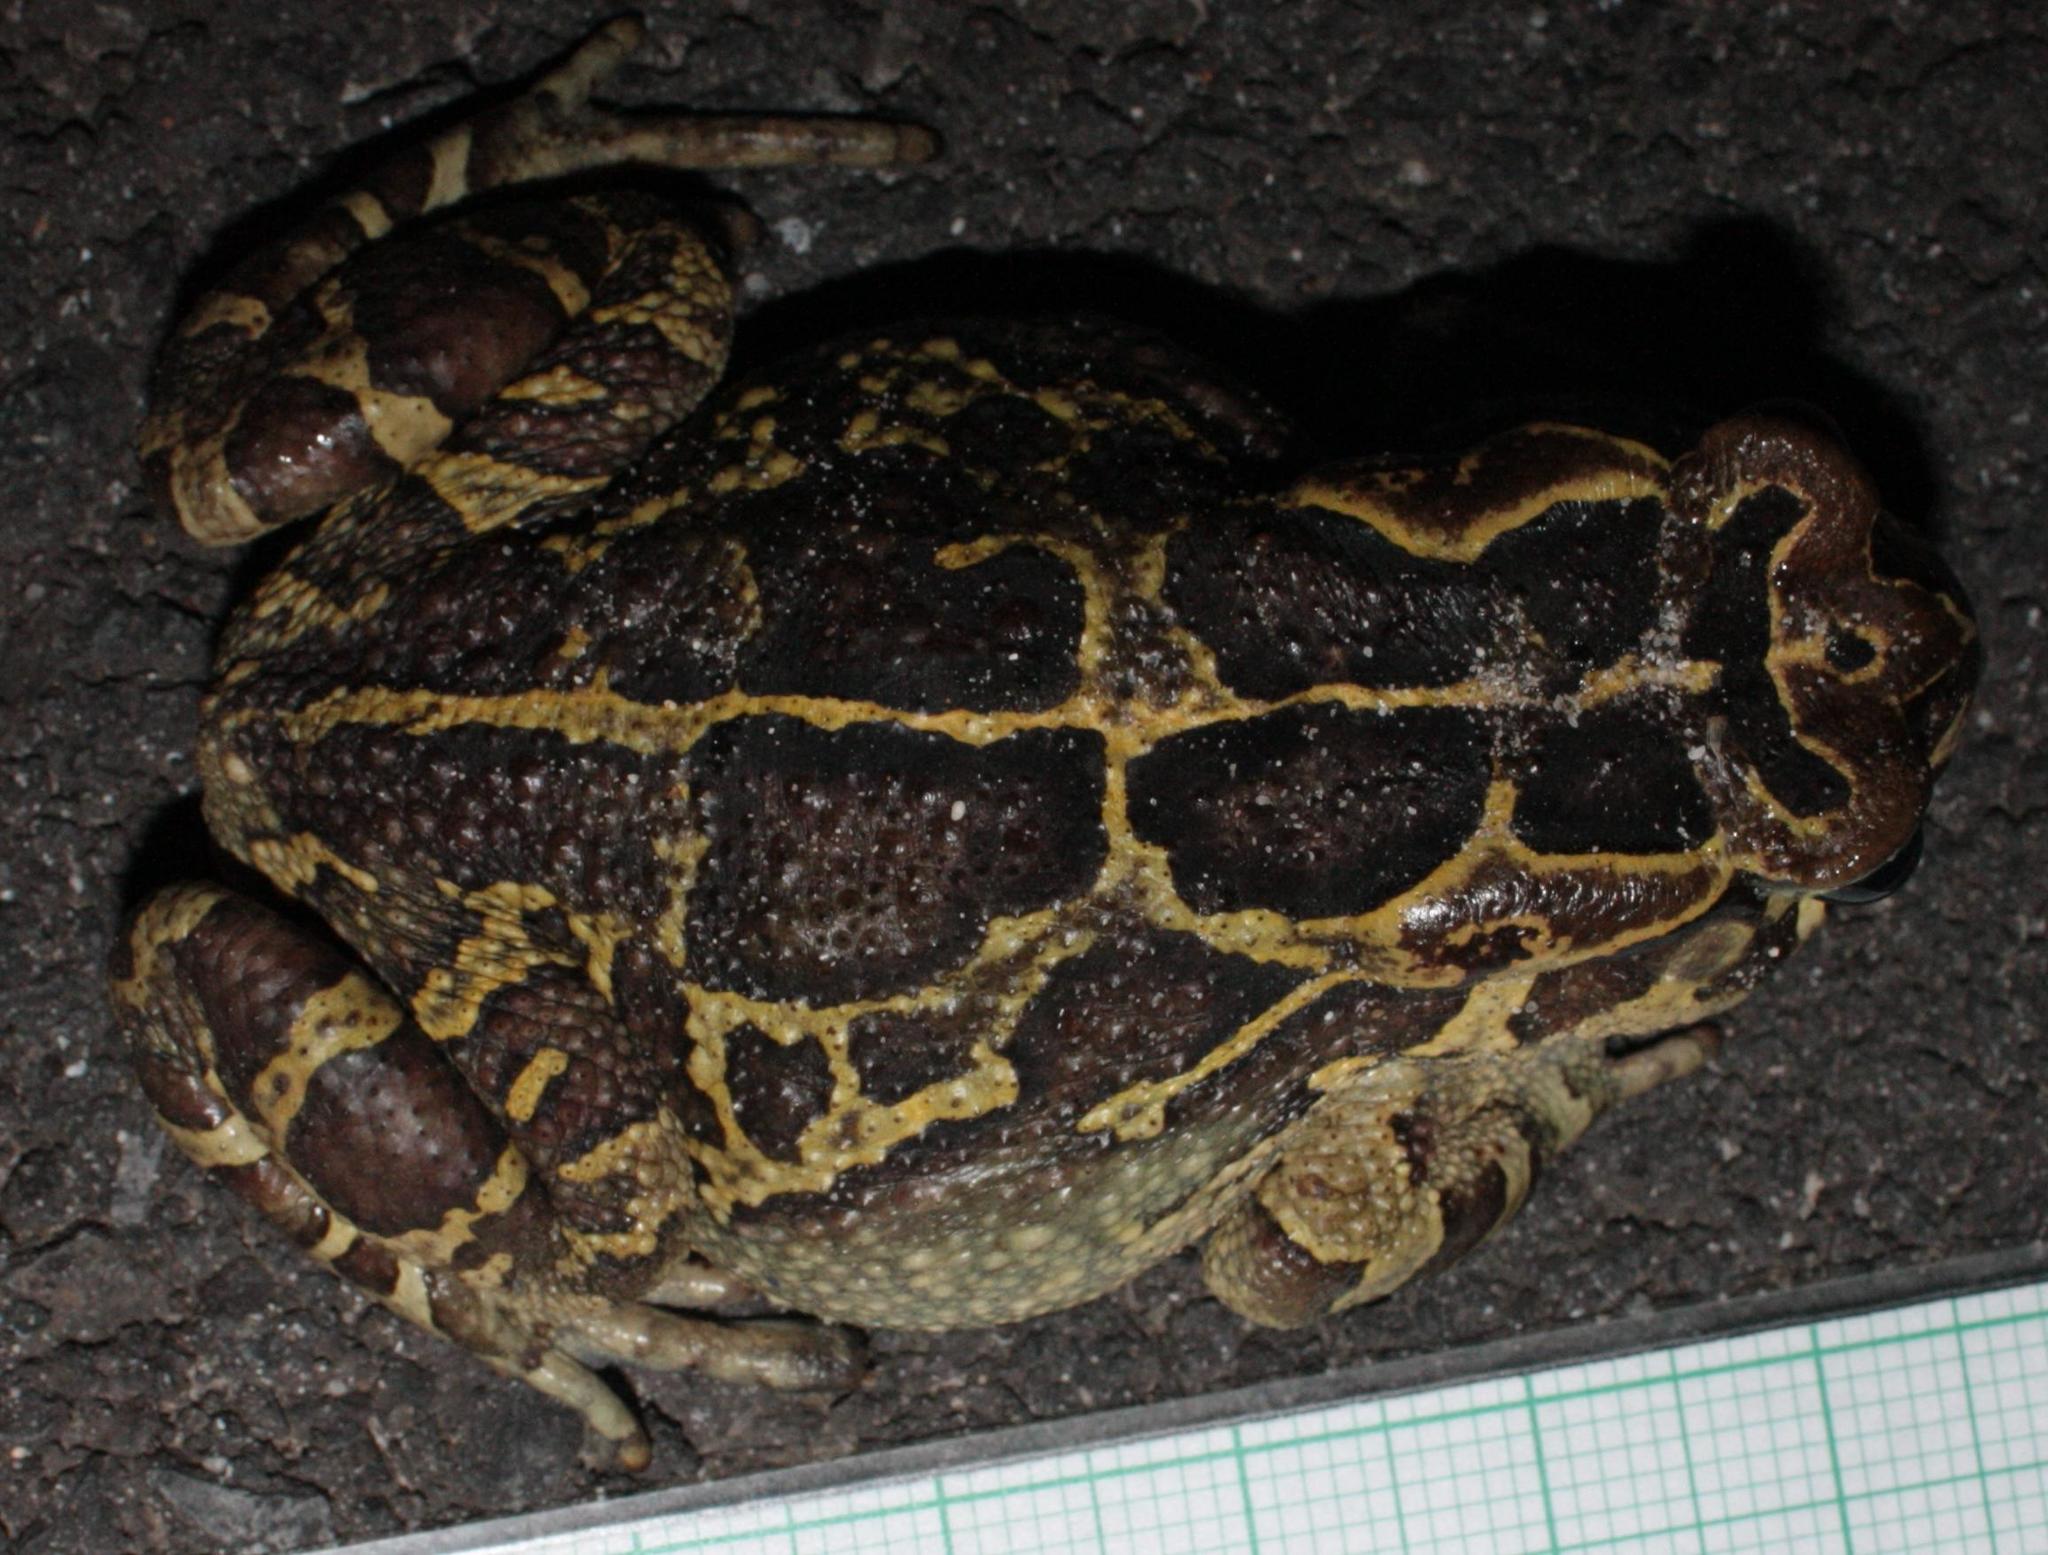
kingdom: Animalia
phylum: Chordata
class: Amphibia
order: Anura
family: Bufonidae
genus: Sclerophrys
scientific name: Sclerophrys pantherina
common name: Panther toad
